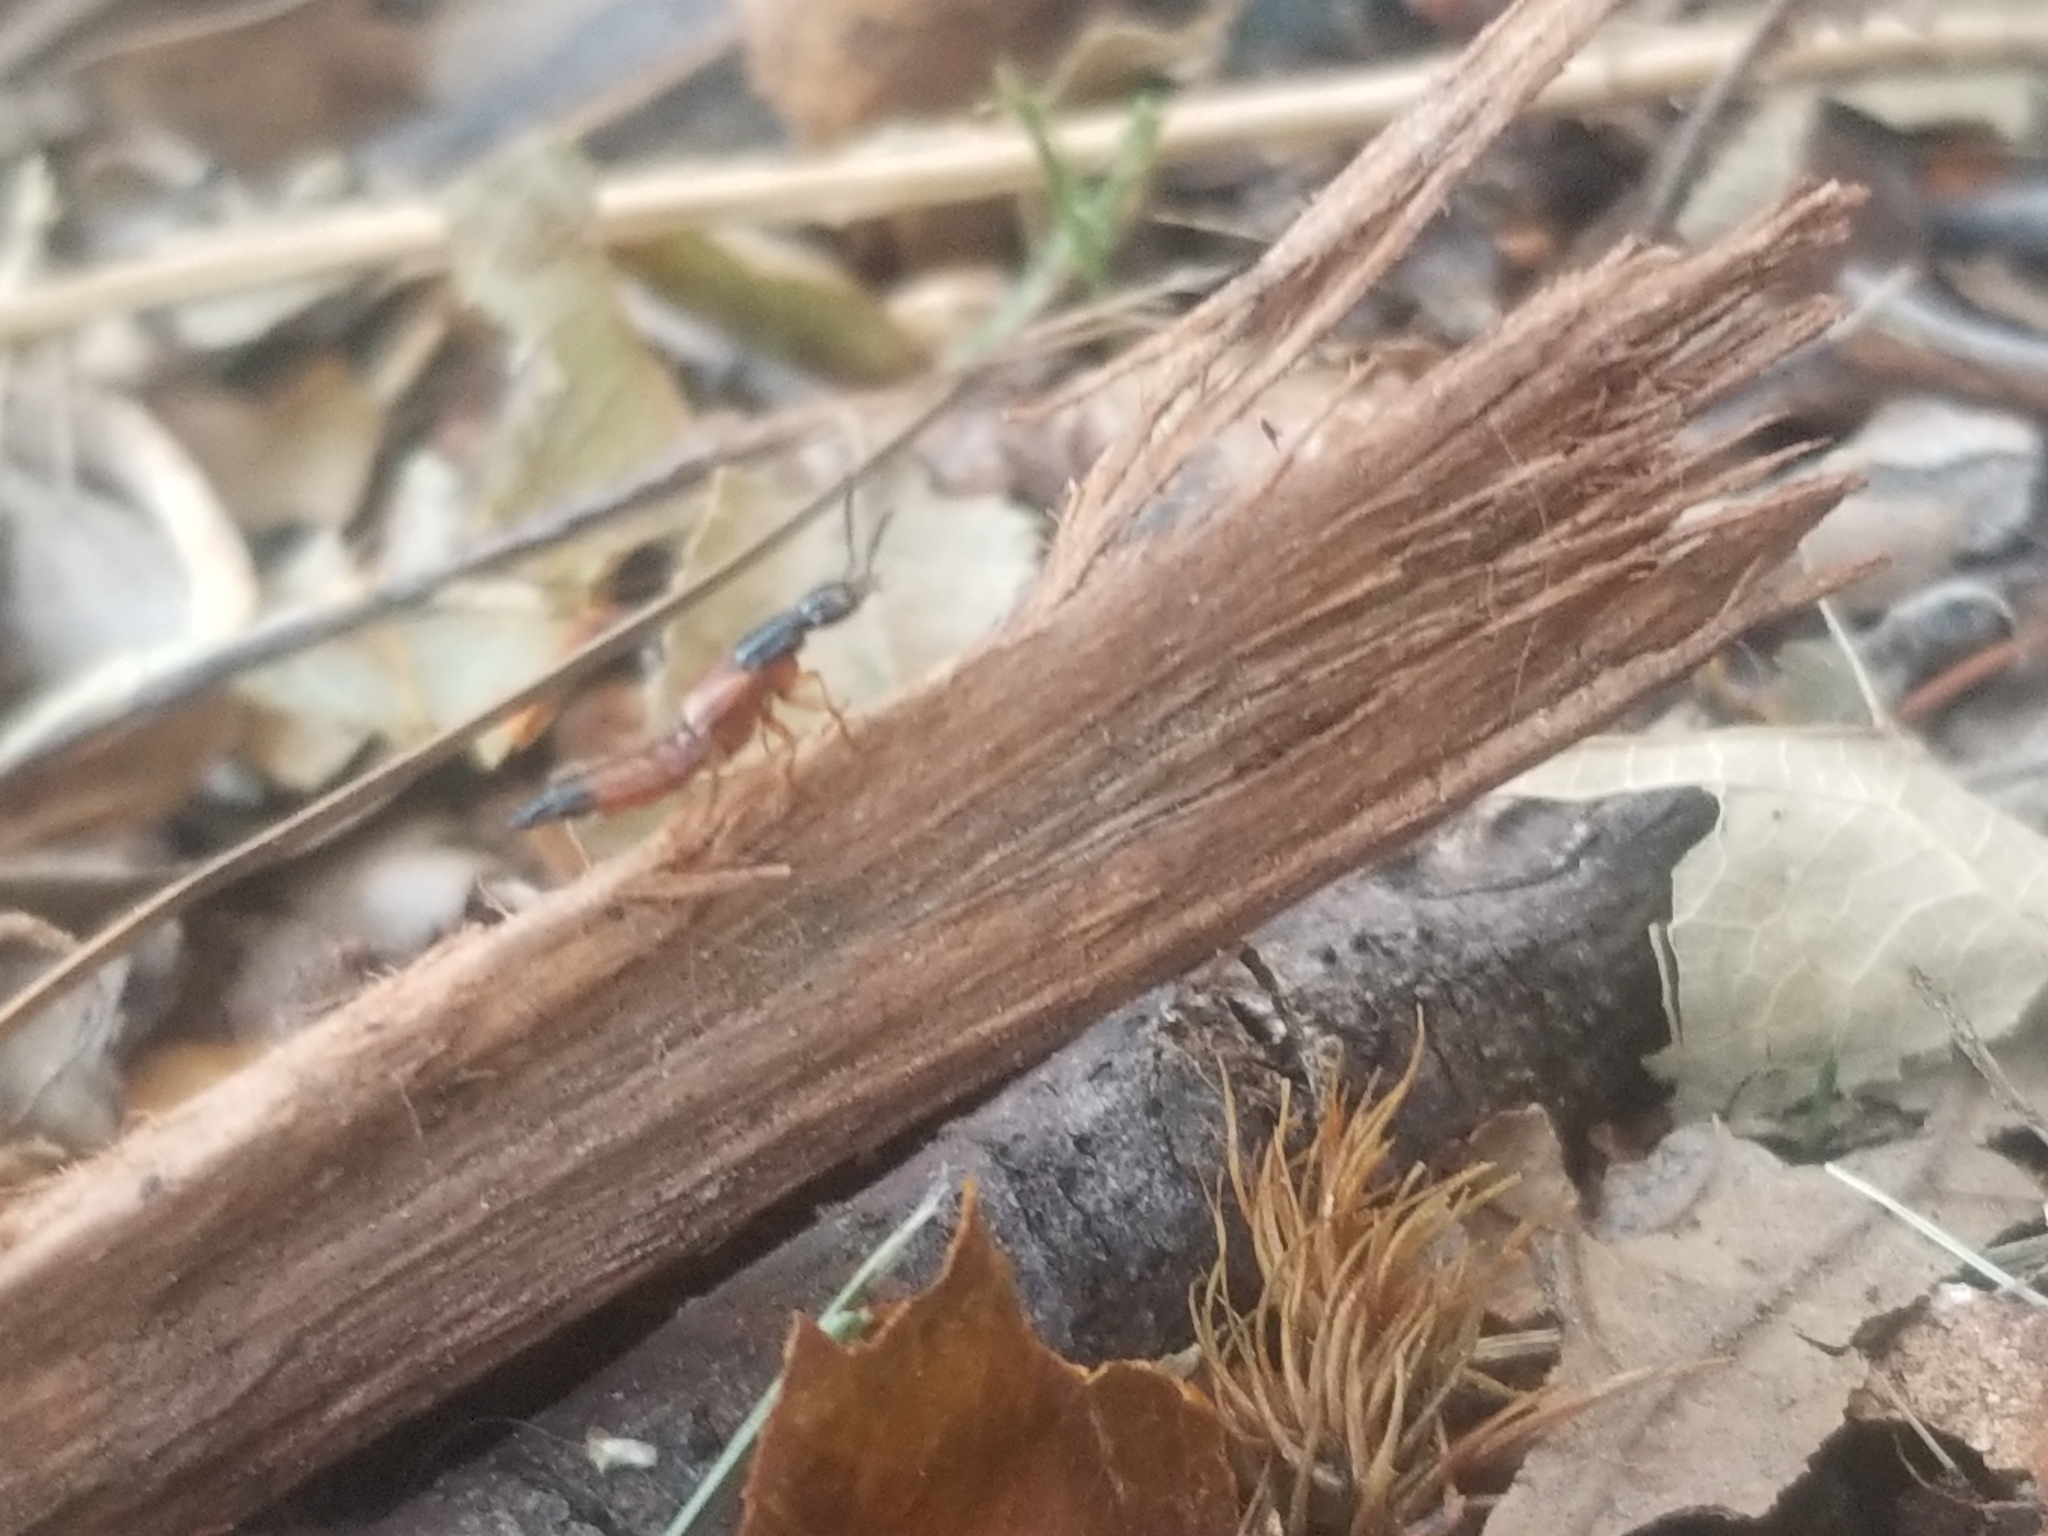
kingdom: Animalia
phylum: Arthropoda
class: Insecta
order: Coleoptera
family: Staphylinidae
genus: Belonuchus
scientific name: Belonuchus rufipennis
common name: Large rove beetle
